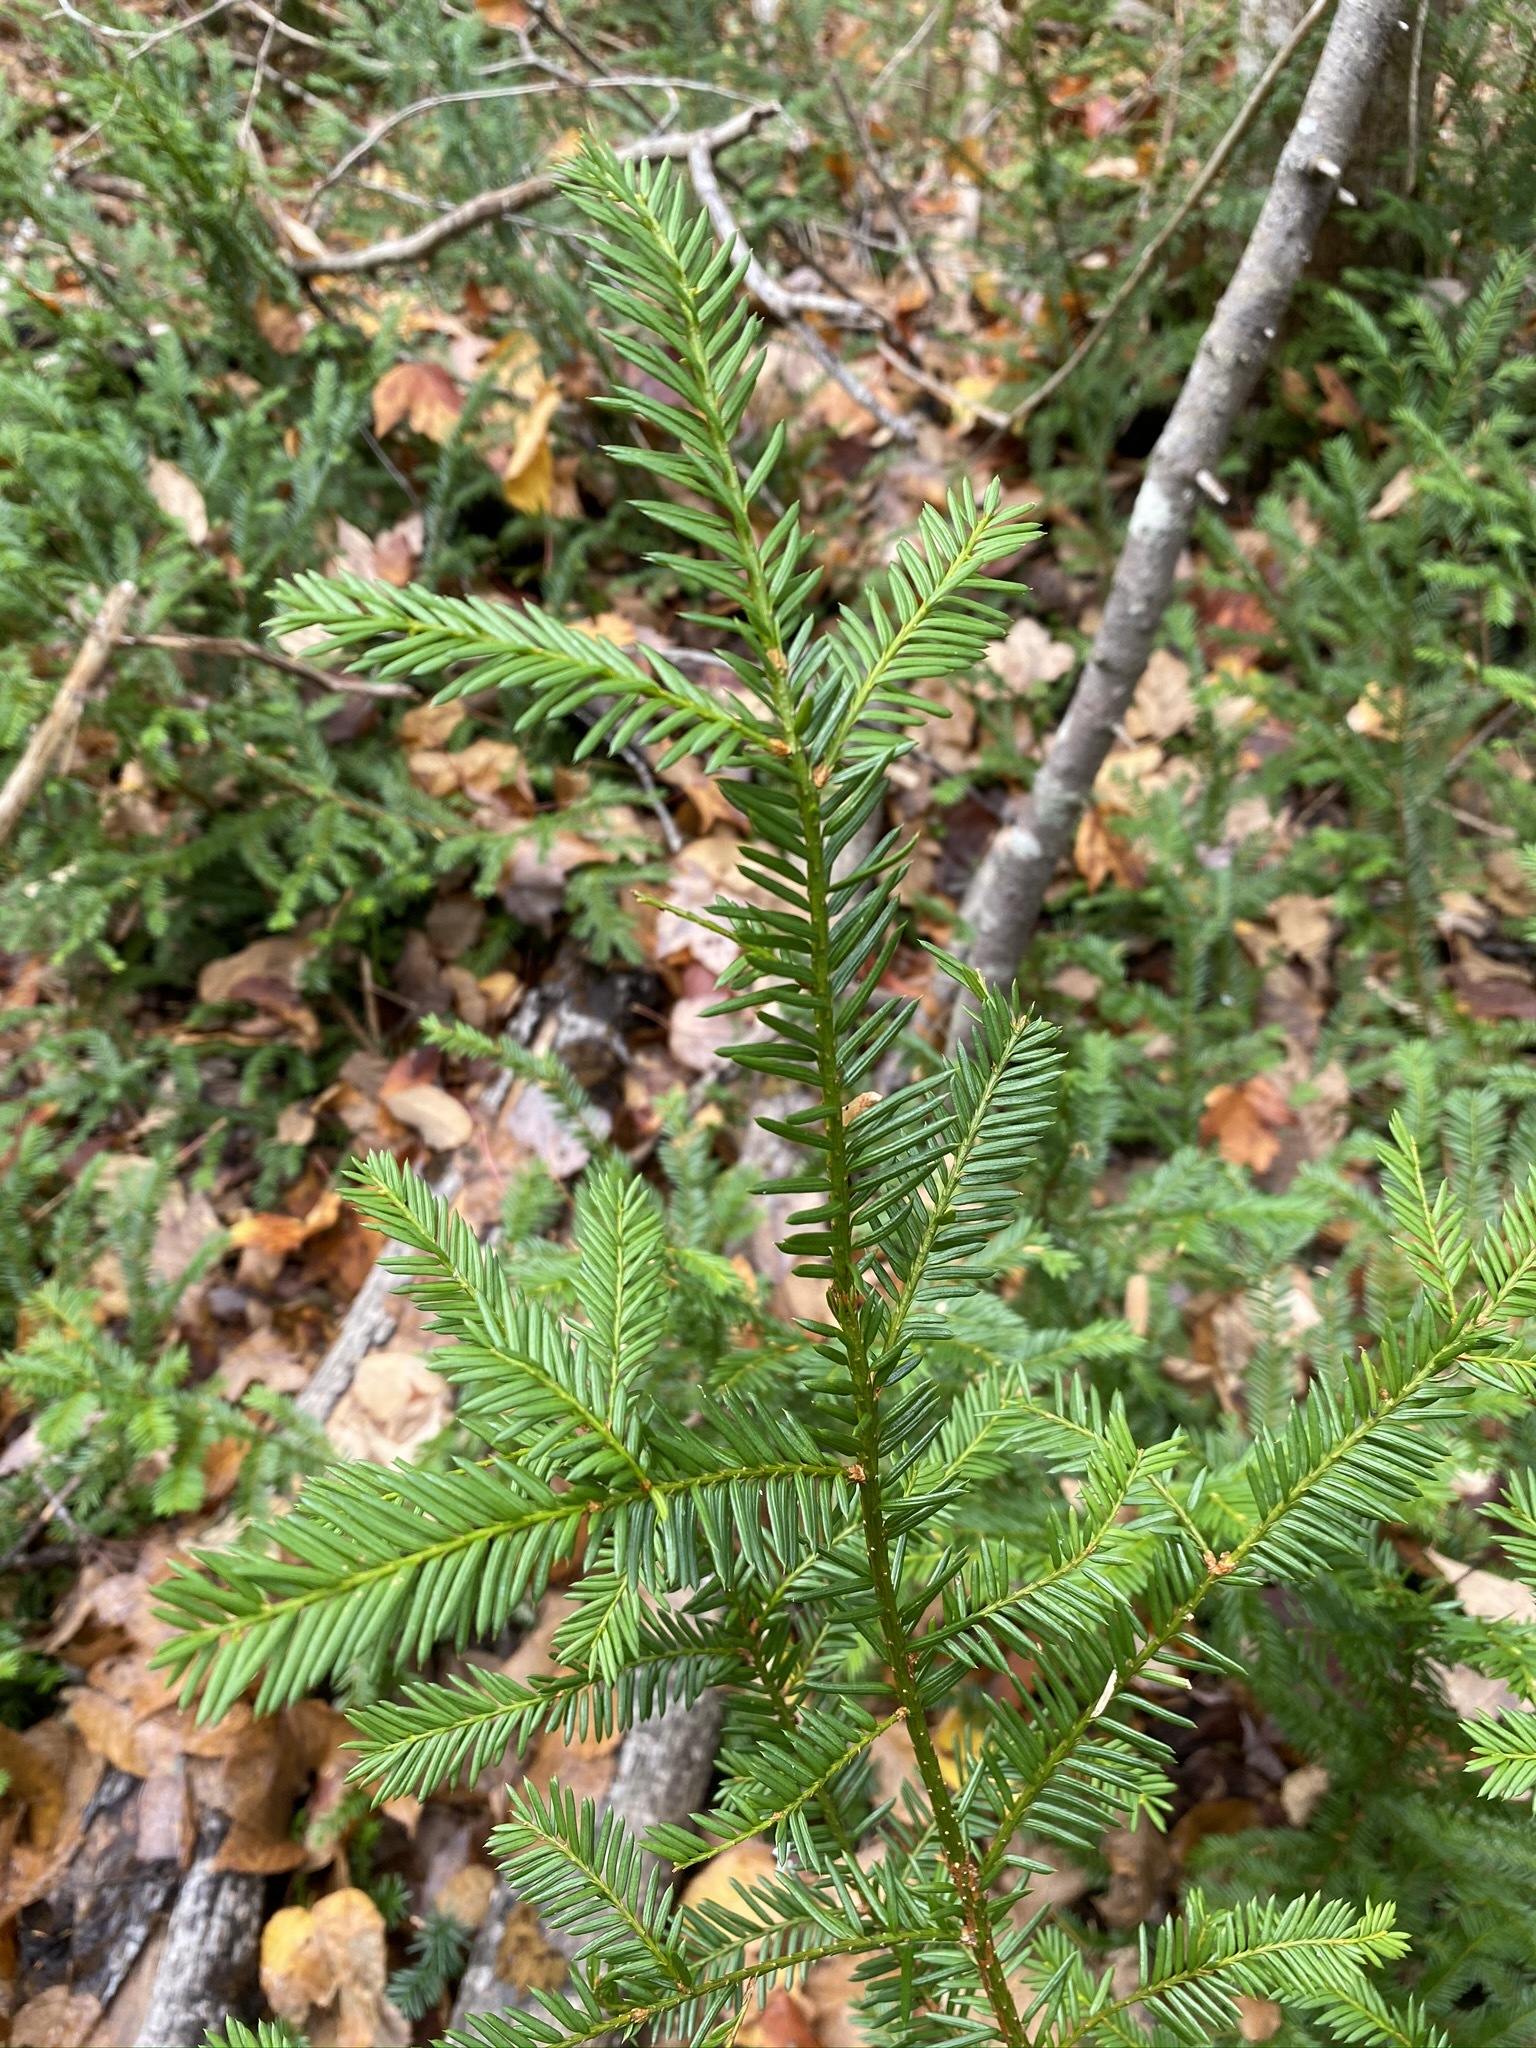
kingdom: Plantae
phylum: Tracheophyta
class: Pinopsida
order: Pinales
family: Taxaceae
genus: Taxus
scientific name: Taxus canadensis
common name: American yew
